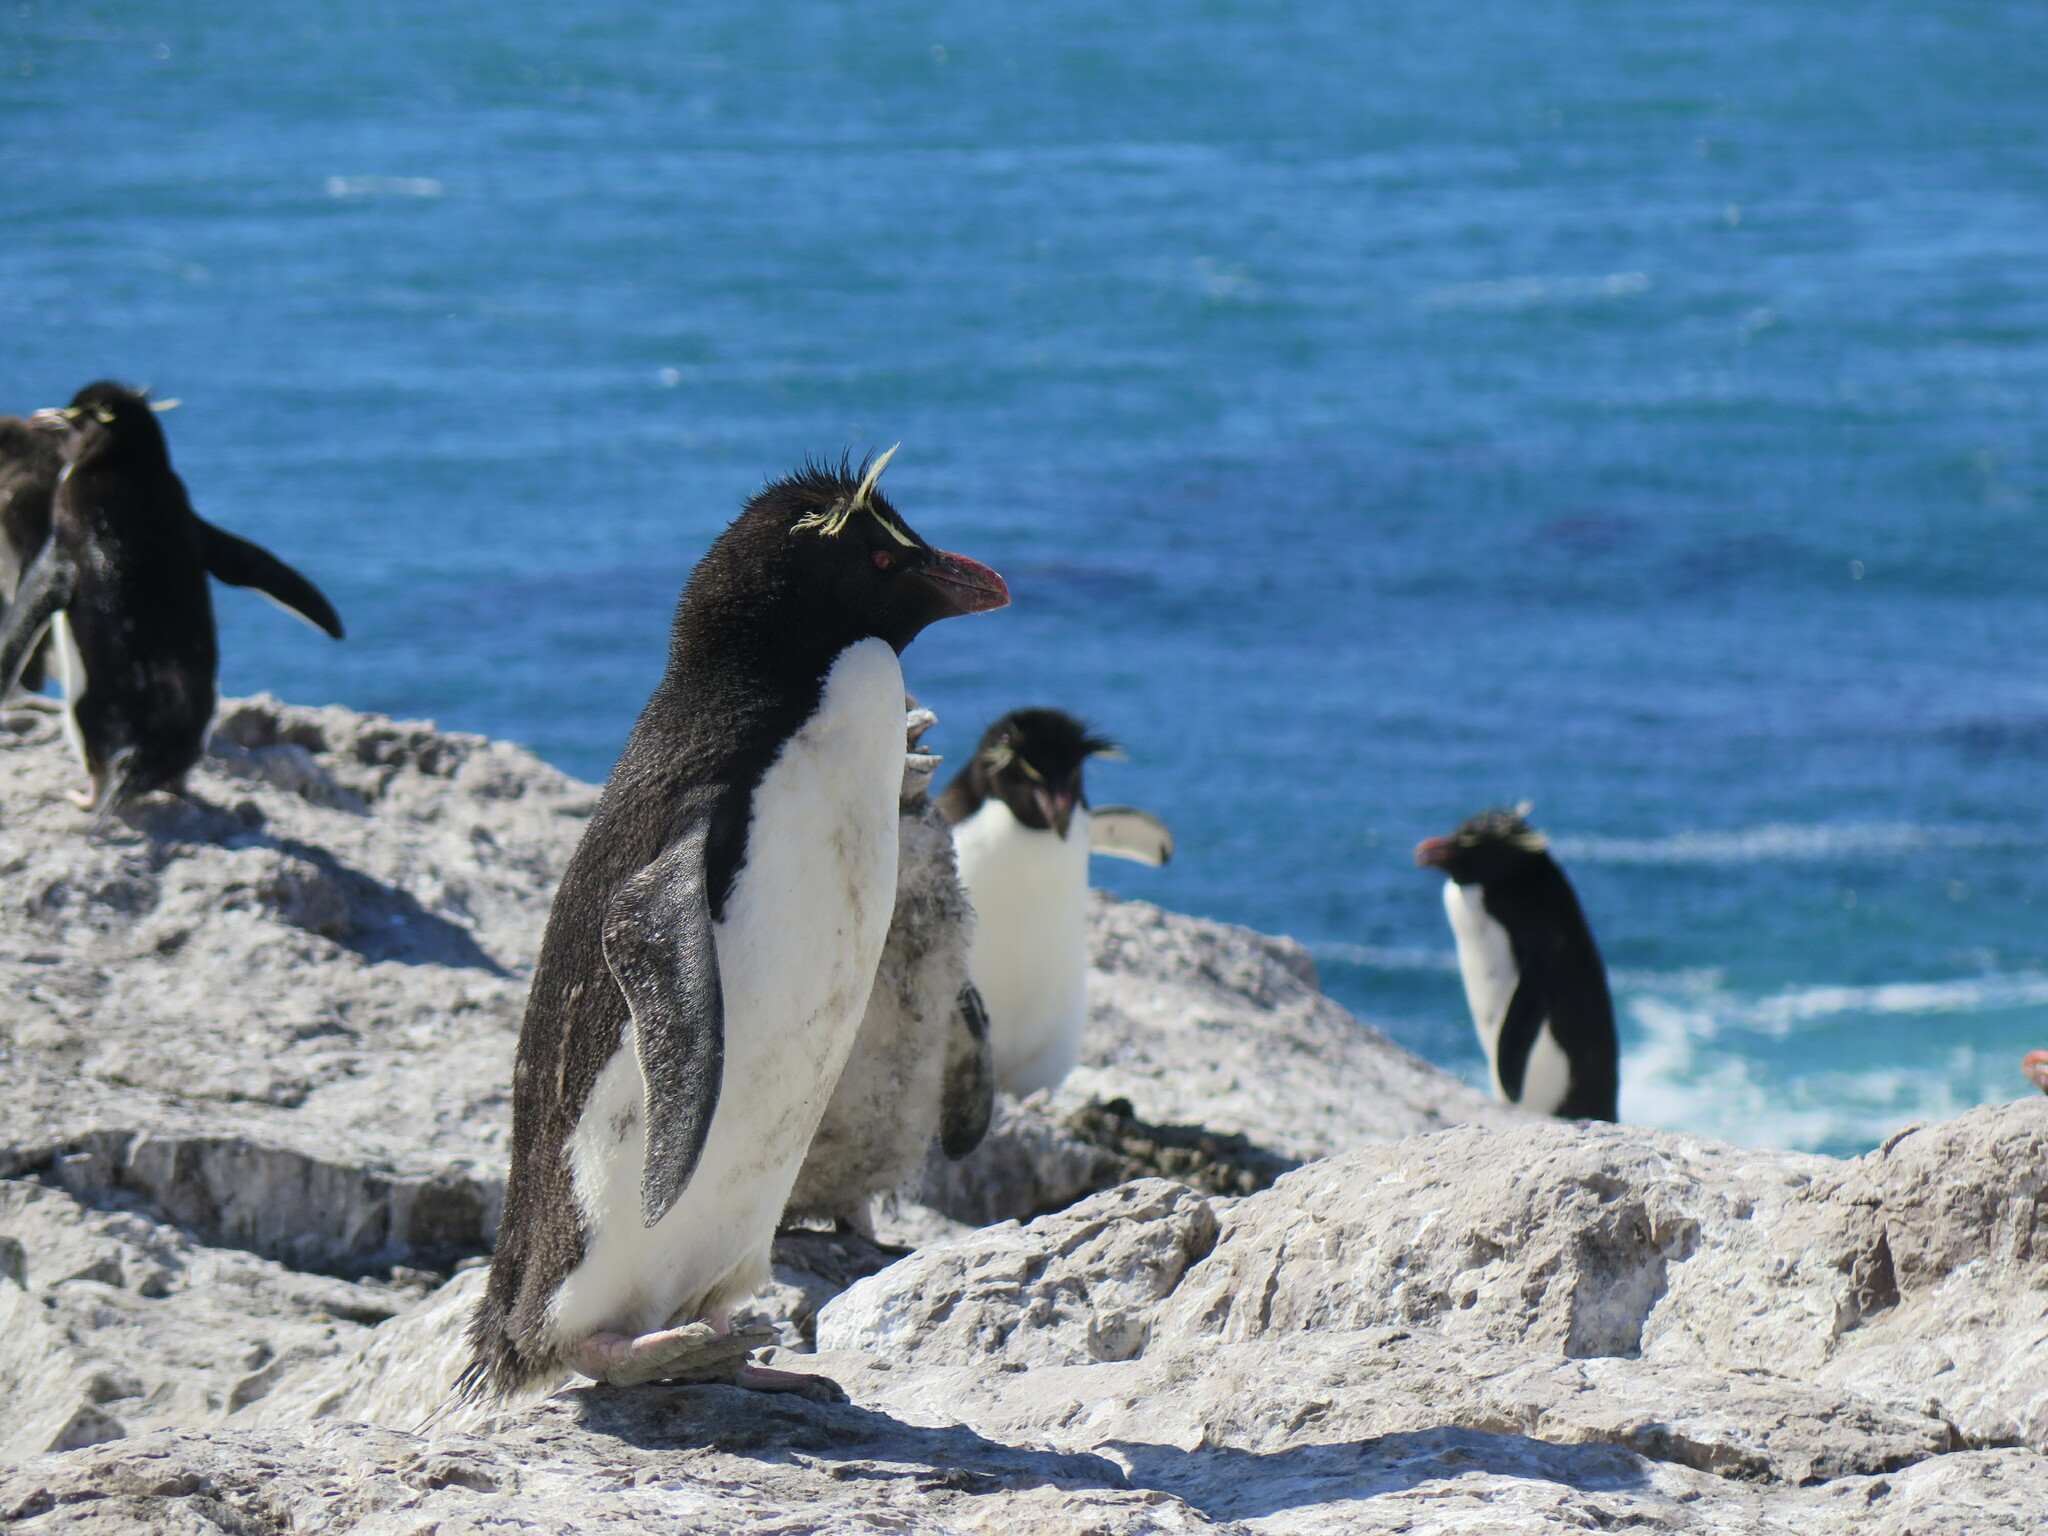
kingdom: Animalia
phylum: Chordata
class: Aves
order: Sphenisciformes
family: Spheniscidae
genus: Eudyptes
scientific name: Eudyptes chrysocome
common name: Southern rockhopper penguin
